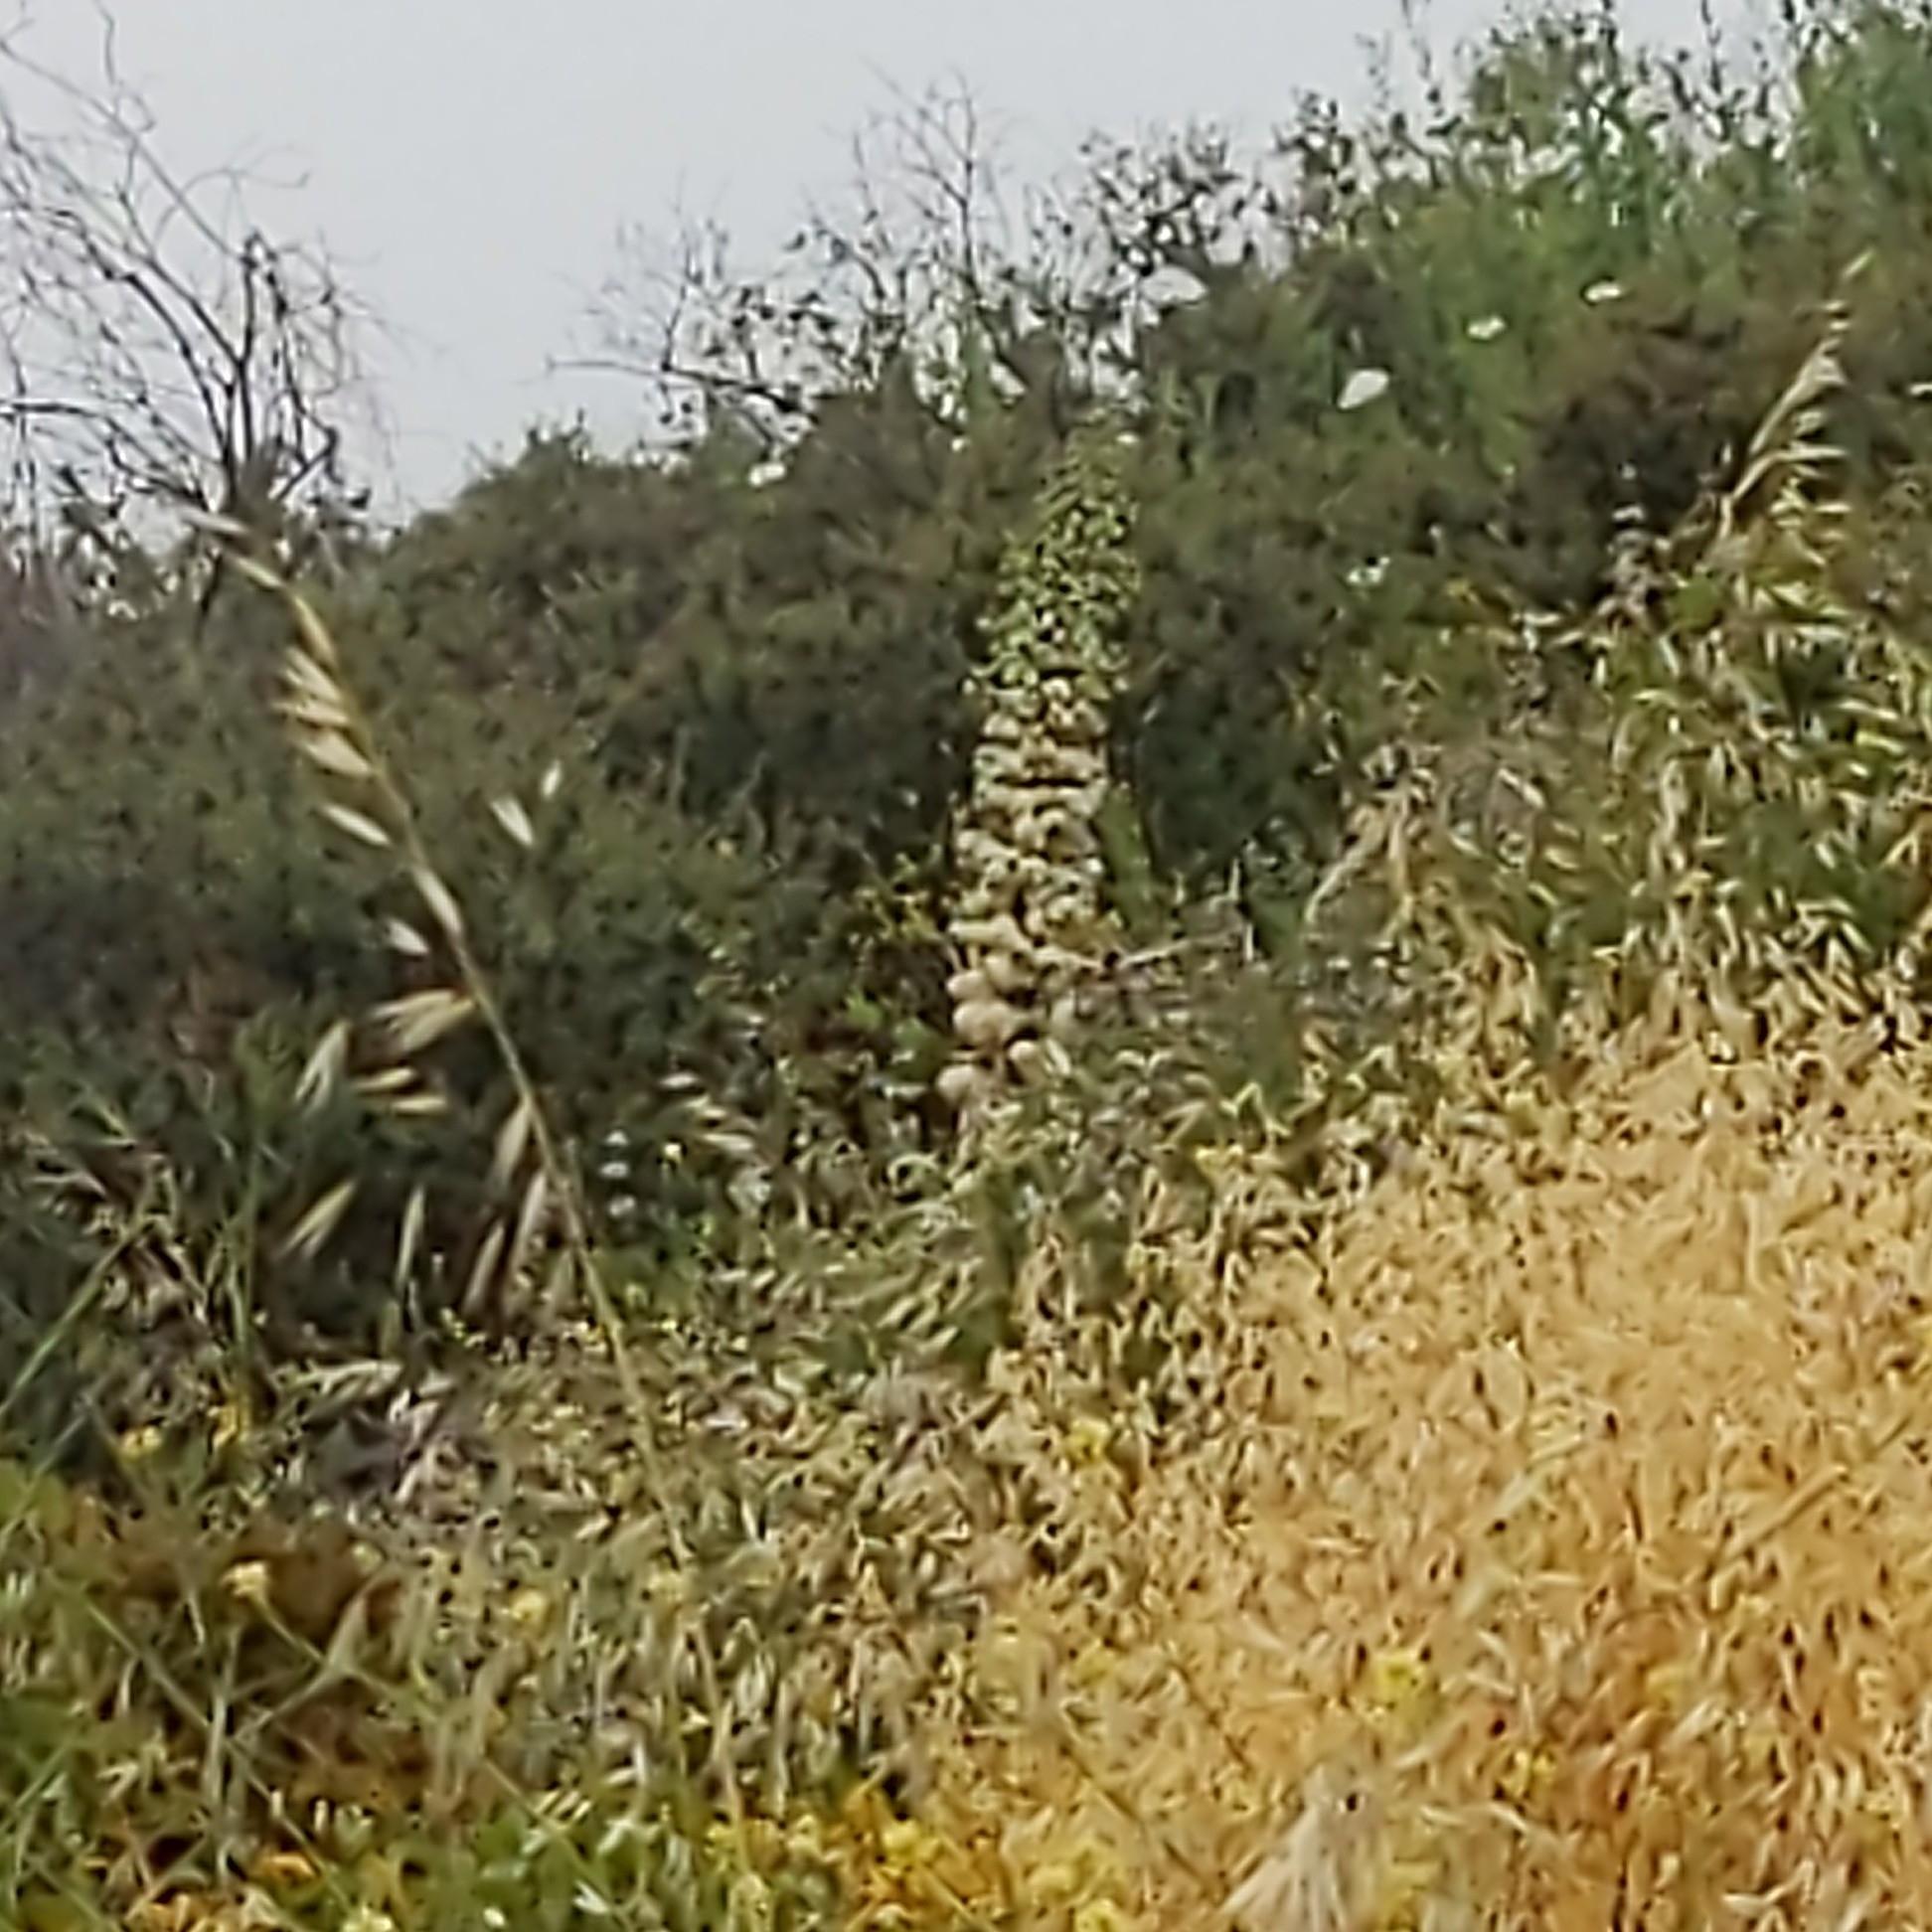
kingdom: Plantae
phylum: Tracheophyta
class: Liliopsida
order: Asparagales
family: Asparagaceae
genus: Hesperoyucca
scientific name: Hesperoyucca whipplei
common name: Our lord's-candle
